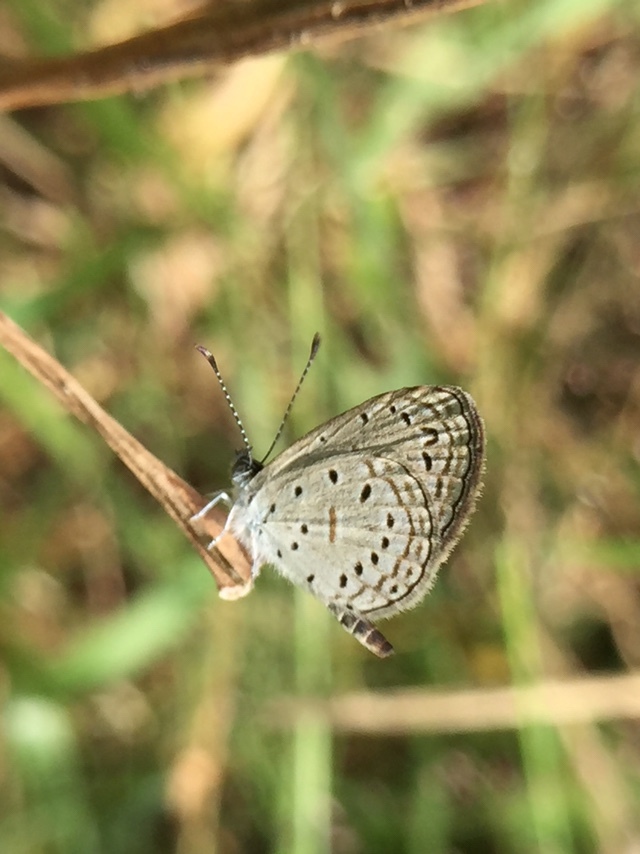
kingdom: Animalia
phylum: Arthropoda
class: Insecta
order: Lepidoptera
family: Lycaenidae
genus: Zizula
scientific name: Zizula hylax
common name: Gaika blue
